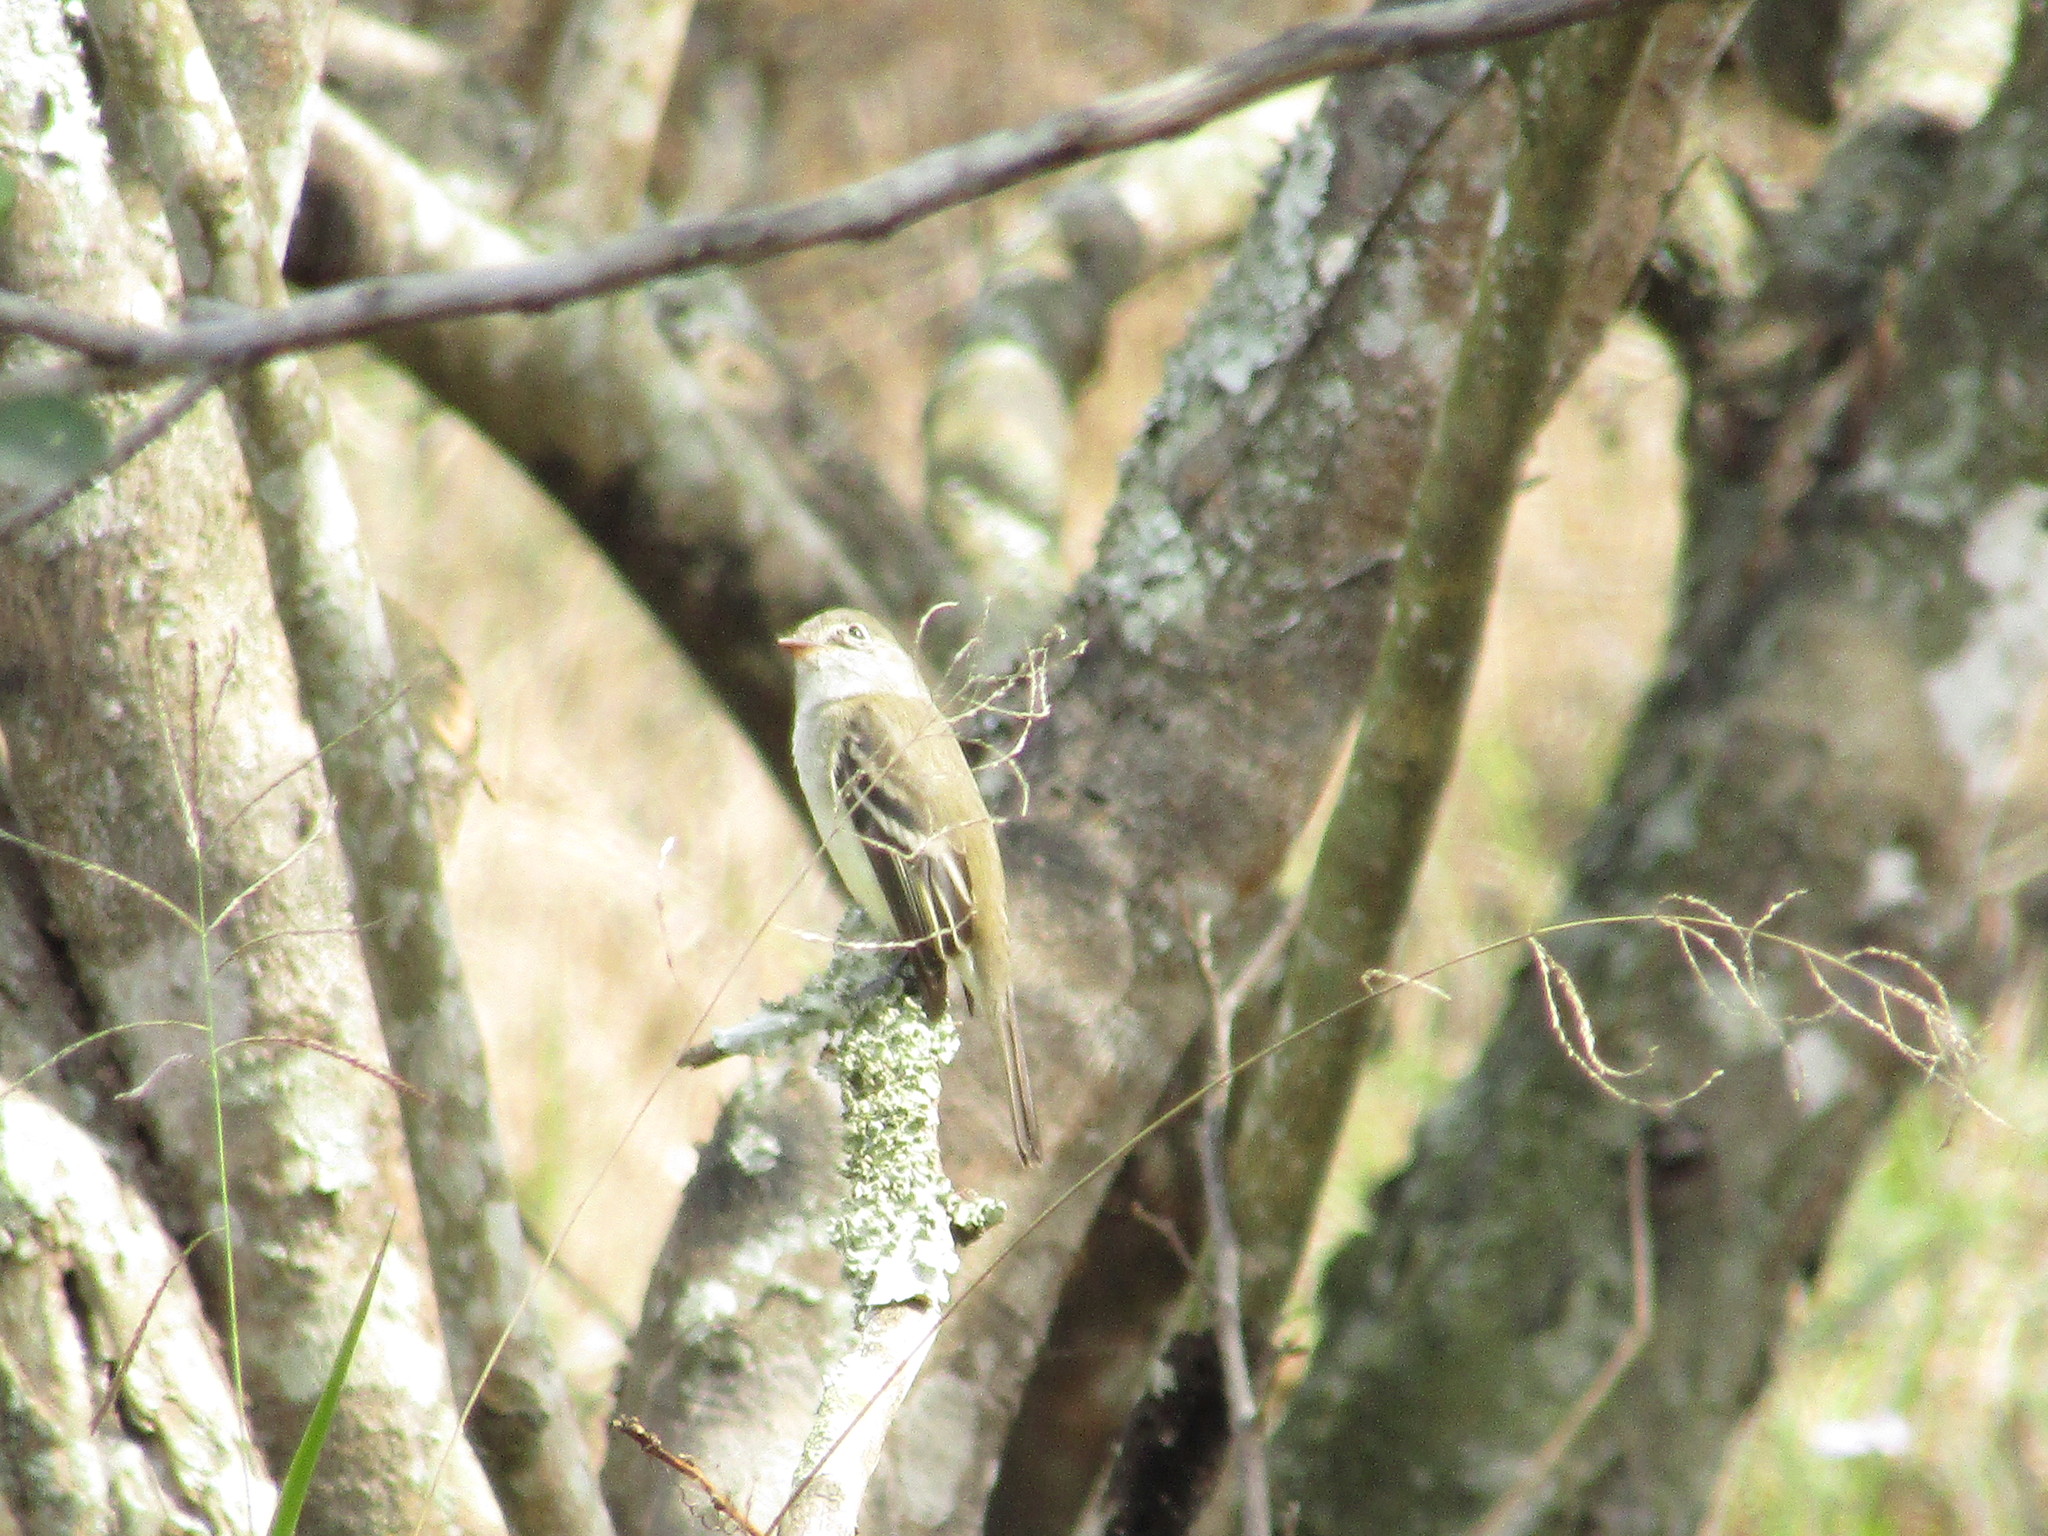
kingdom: Animalia
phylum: Chordata
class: Aves
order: Passeriformes
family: Tyrannidae
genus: Empidonax
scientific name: Empidonax minimus
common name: Least flycatcher
